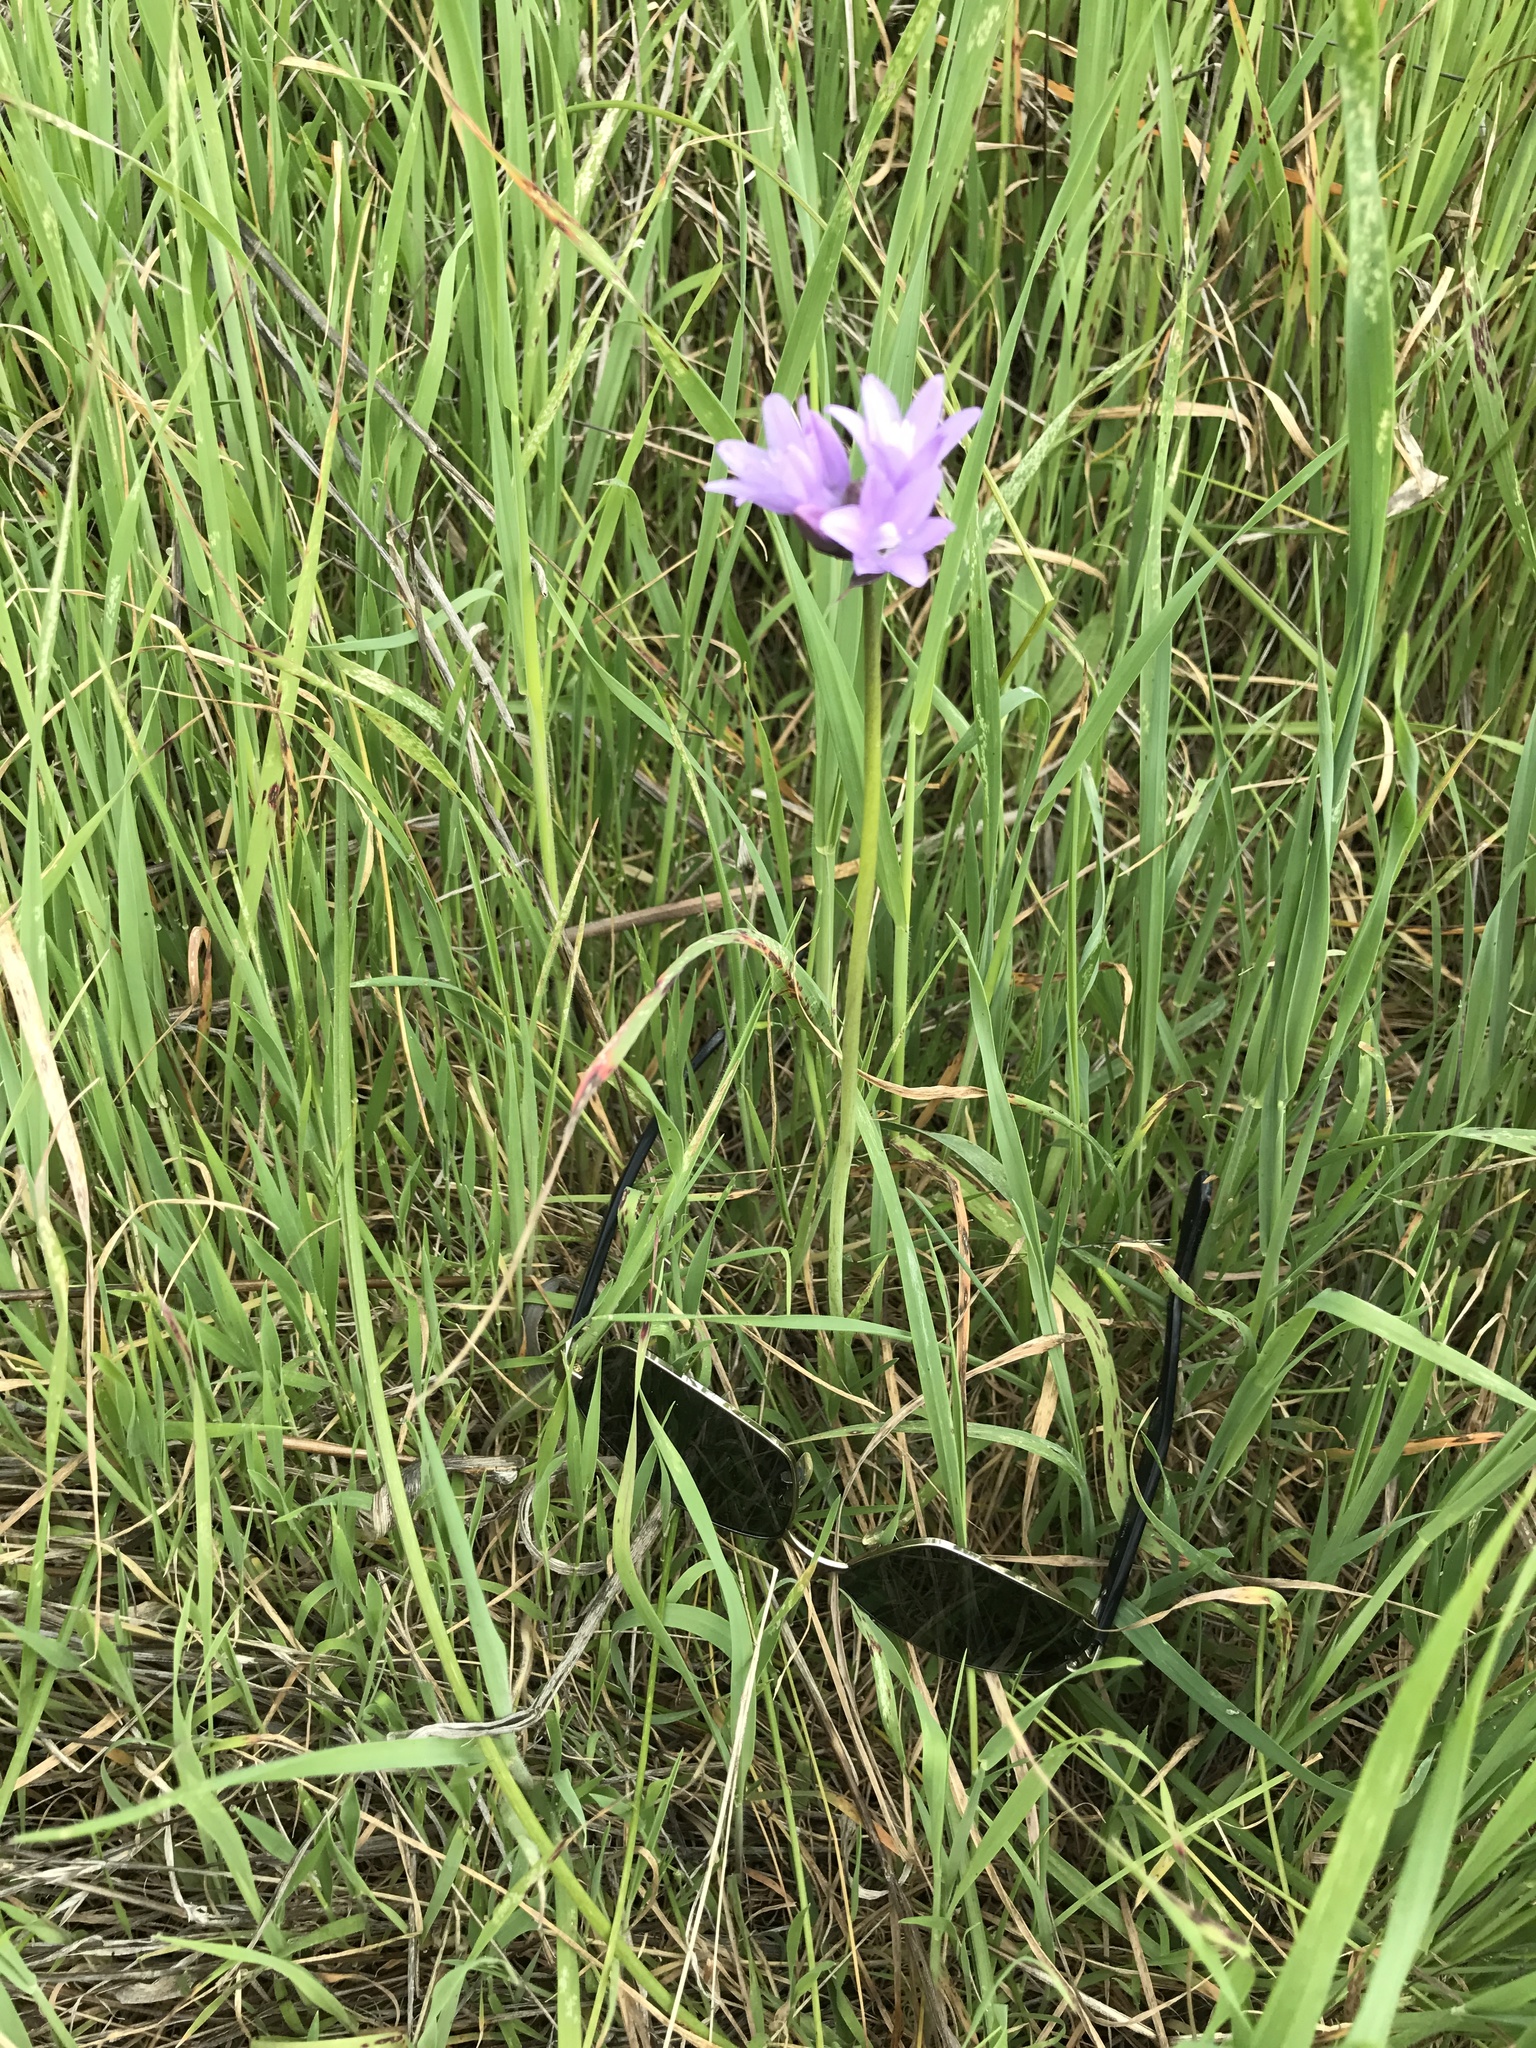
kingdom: Plantae
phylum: Tracheophyta
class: Liliopsida
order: Asparagales
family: Asparagaceae
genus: Dipterostemon
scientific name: Dipterostemon capitatus
